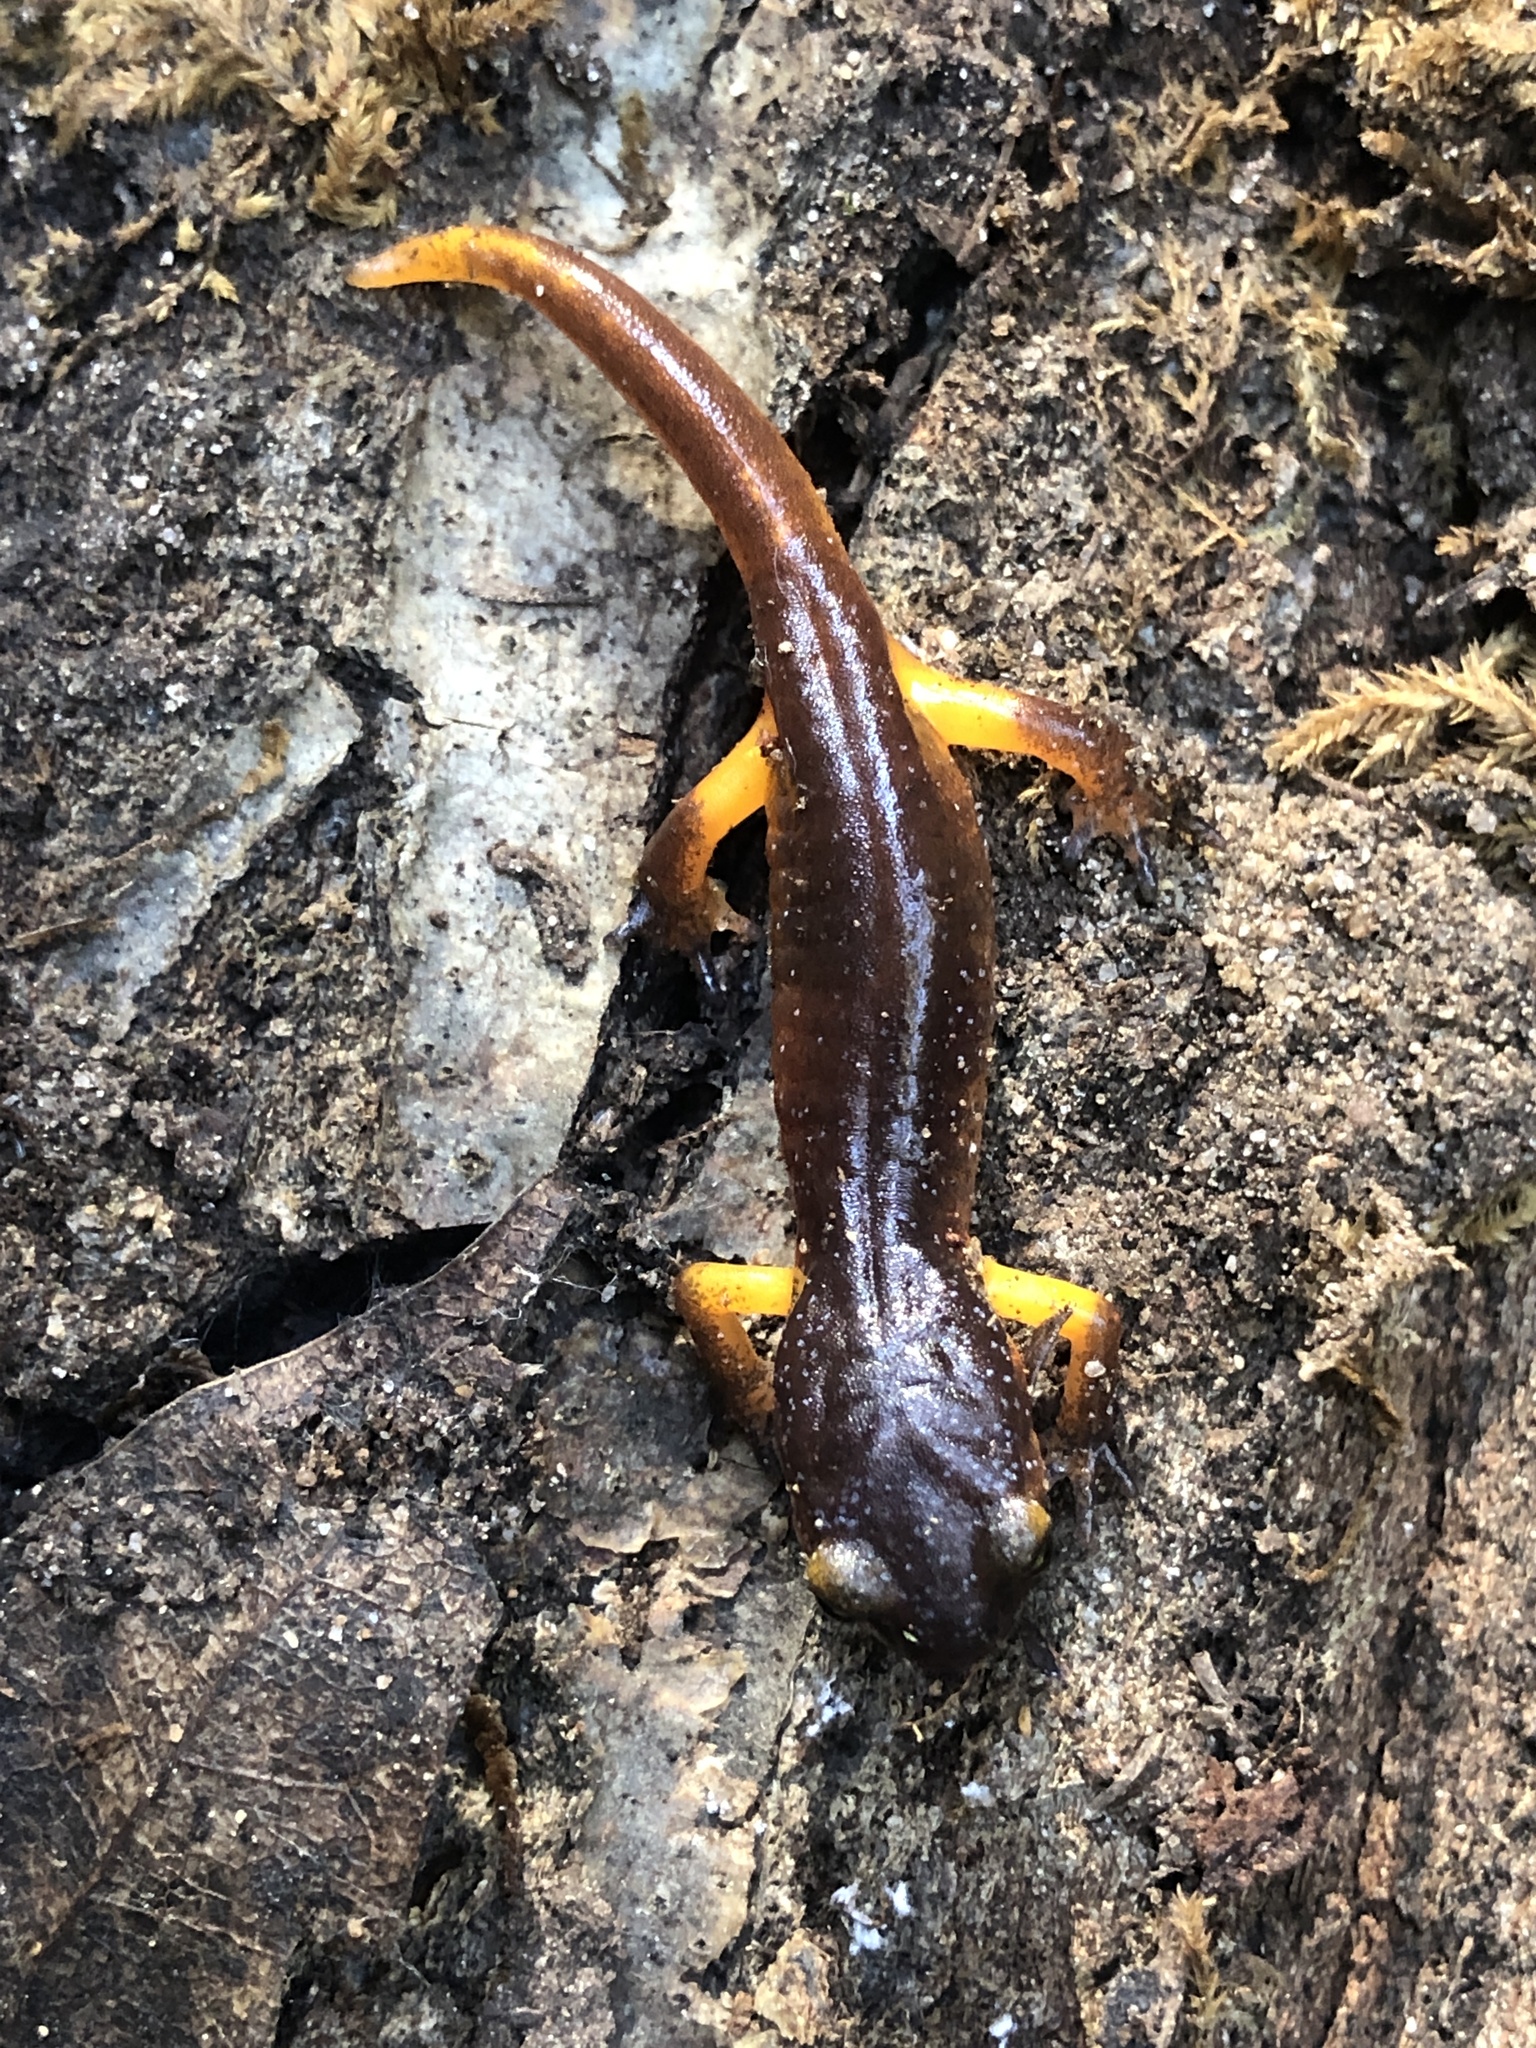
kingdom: Animalia
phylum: Chordata
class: Amphibia
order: Caudata
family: Plethodontidae
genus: Ensatina
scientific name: Ensatina eschscholtzii
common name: Ensatina
